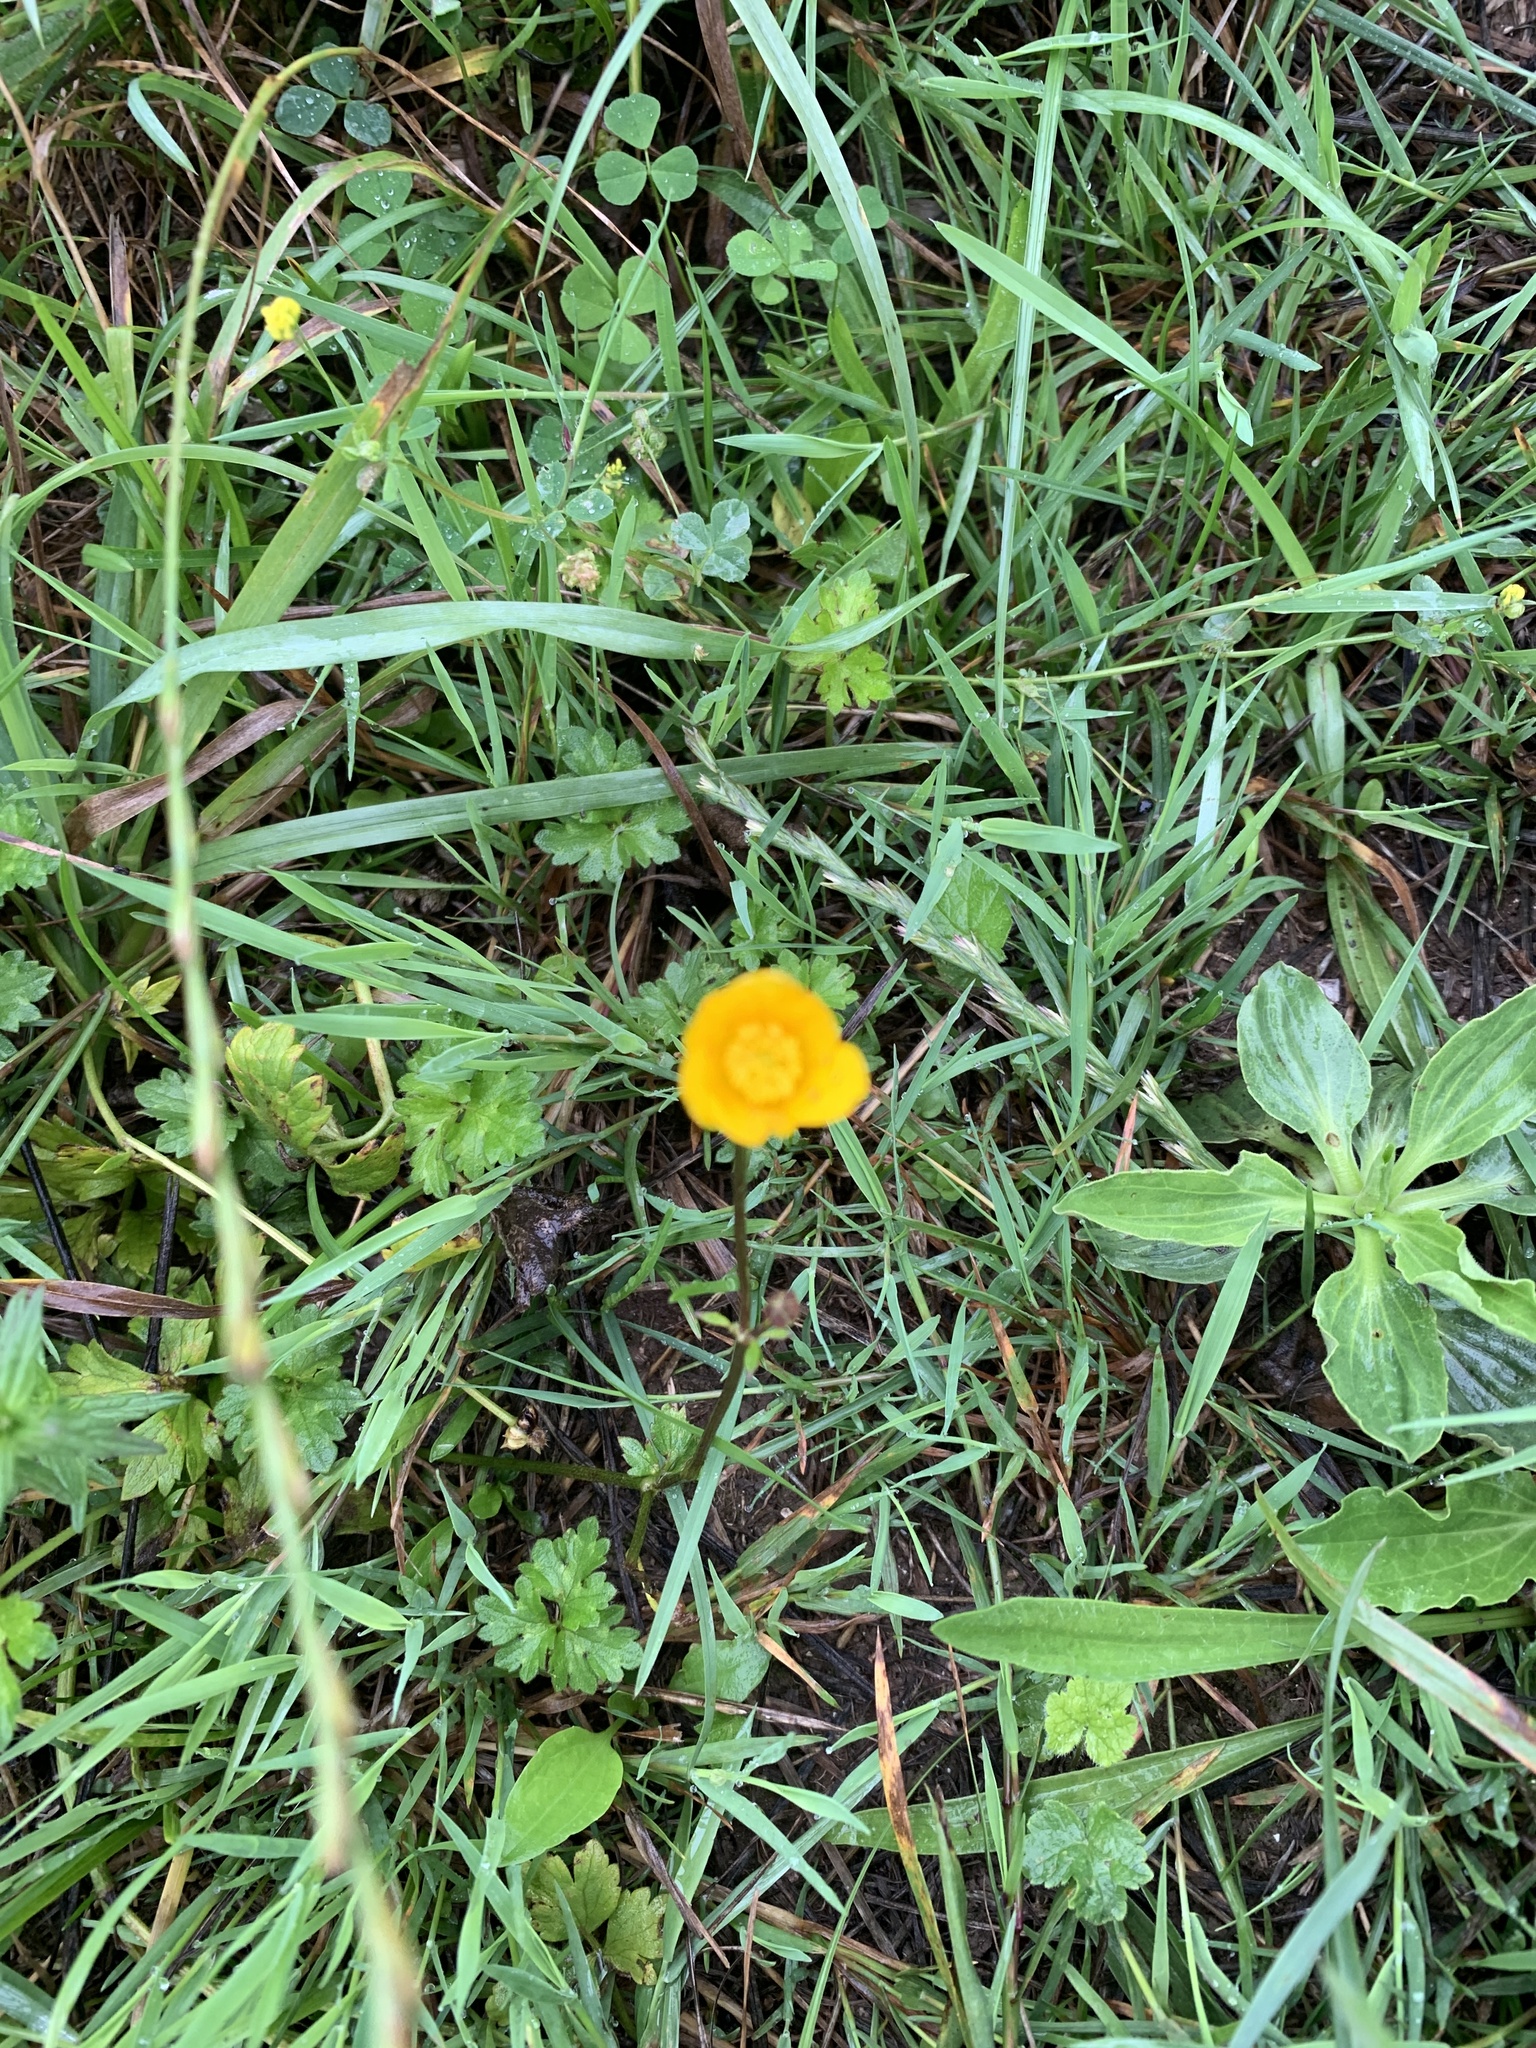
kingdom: Plantae
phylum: Tracheophyta
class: Magnoliopsida
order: Ranunculales
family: Ranunculaceae
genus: Ranunculus
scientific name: Ranunculus acris
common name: Meadow buttercup
